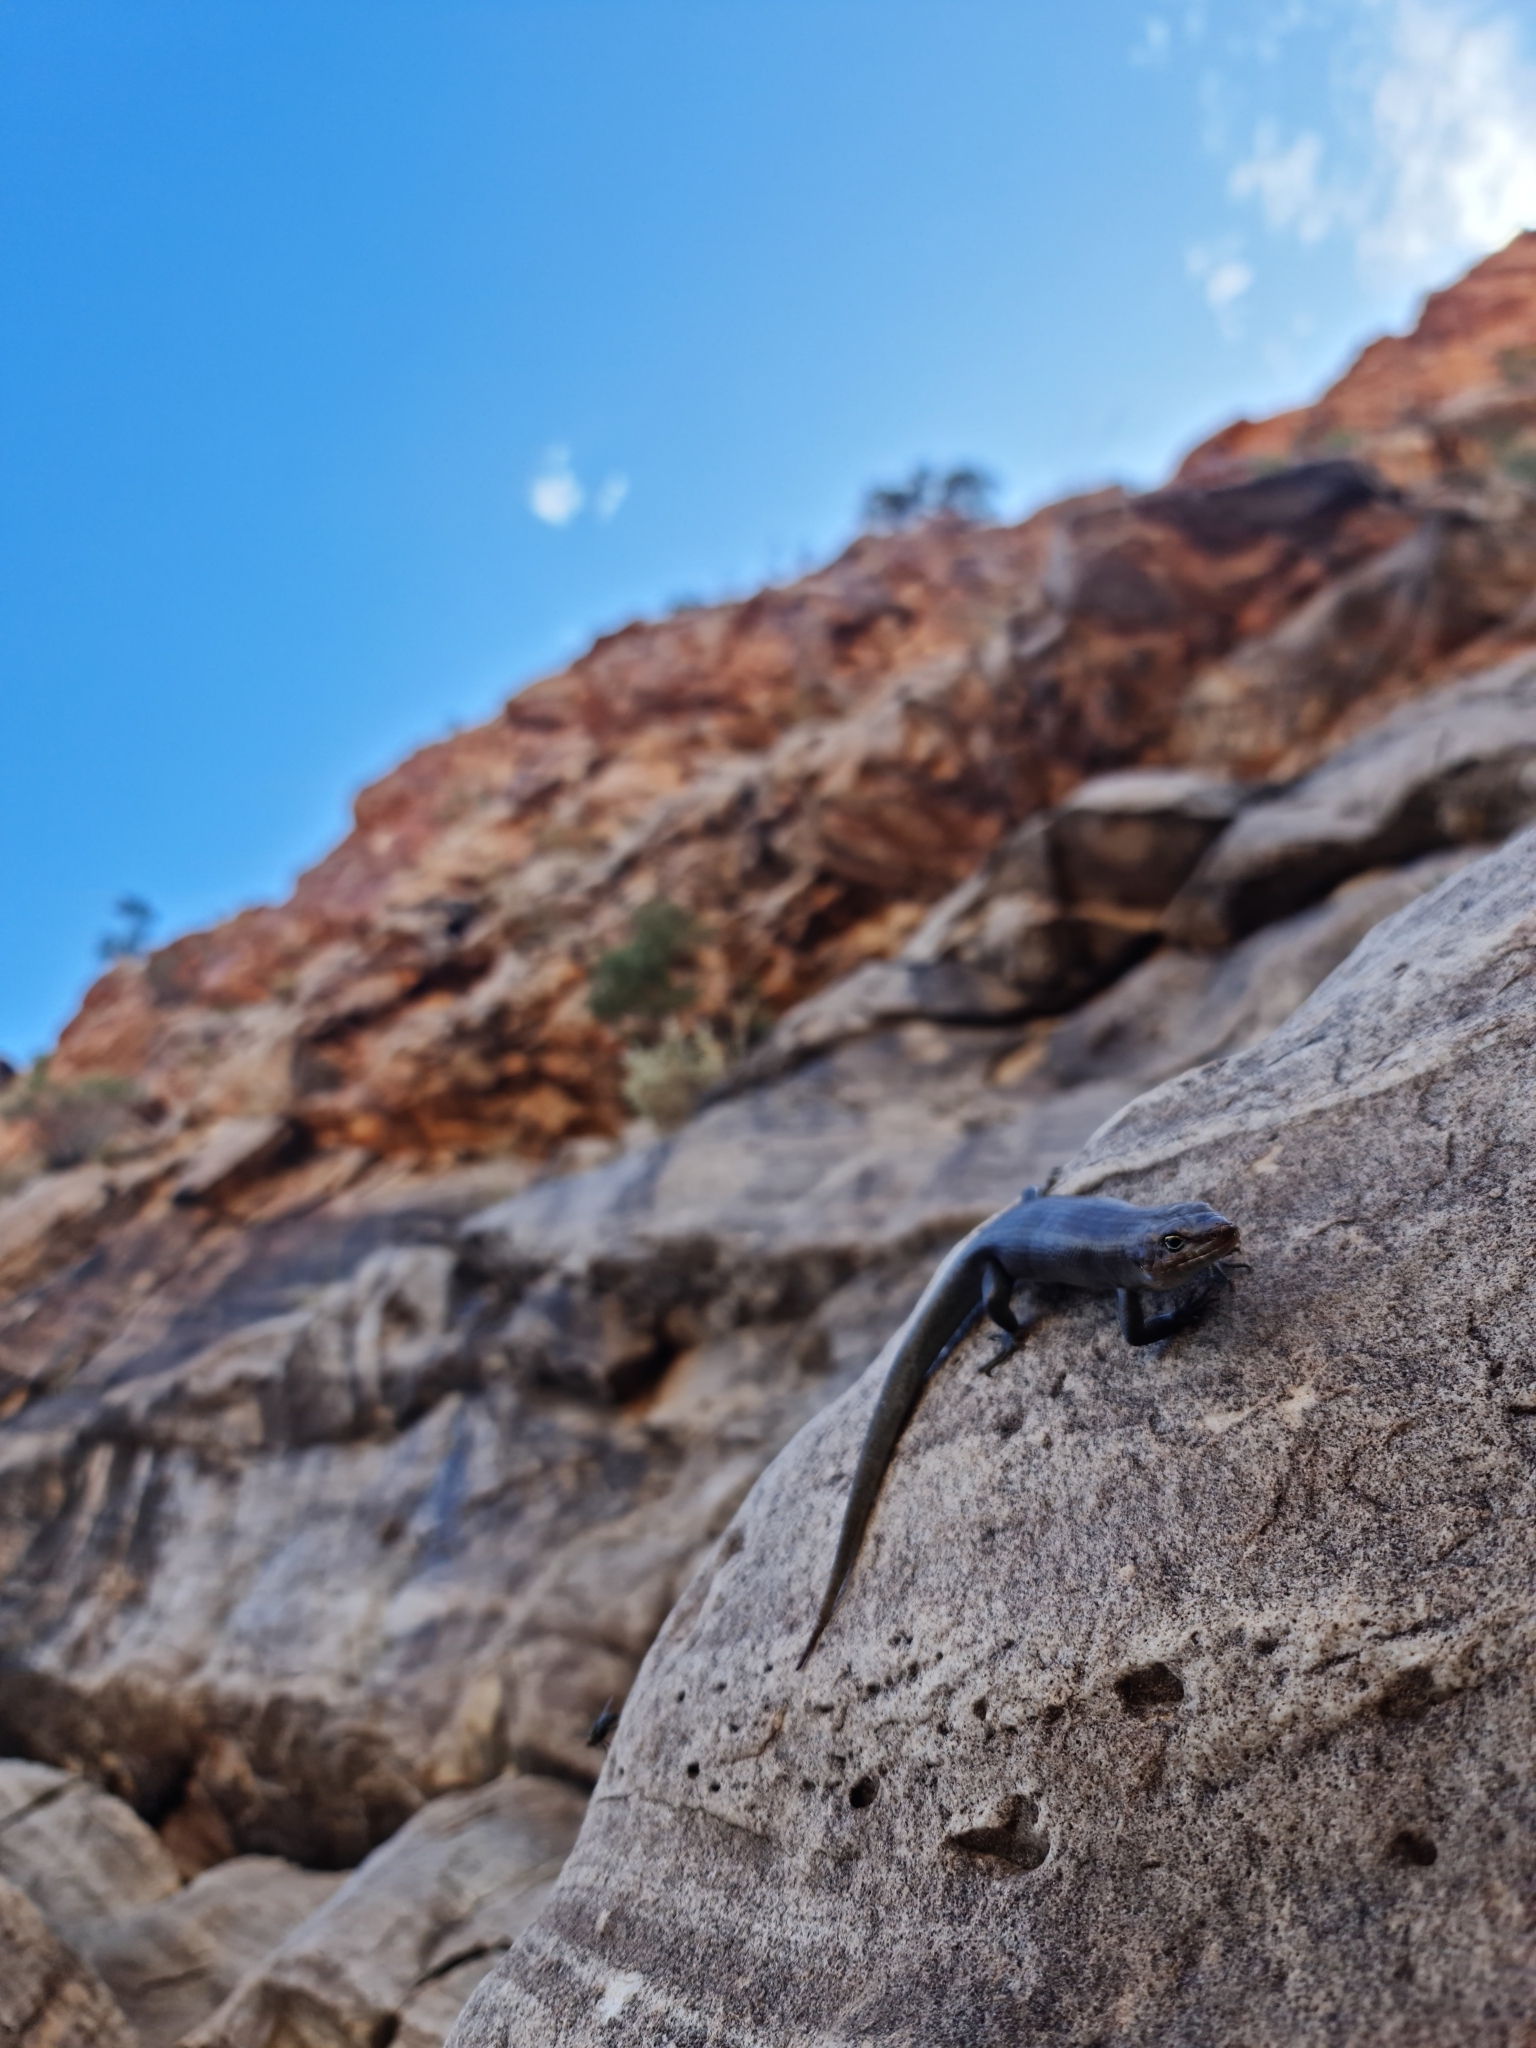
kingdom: Animalia
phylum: Chordata
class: Squamata
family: Scincidae
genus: Liopholis
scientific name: Liopholis personata
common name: Centralian ranges rock-skink
